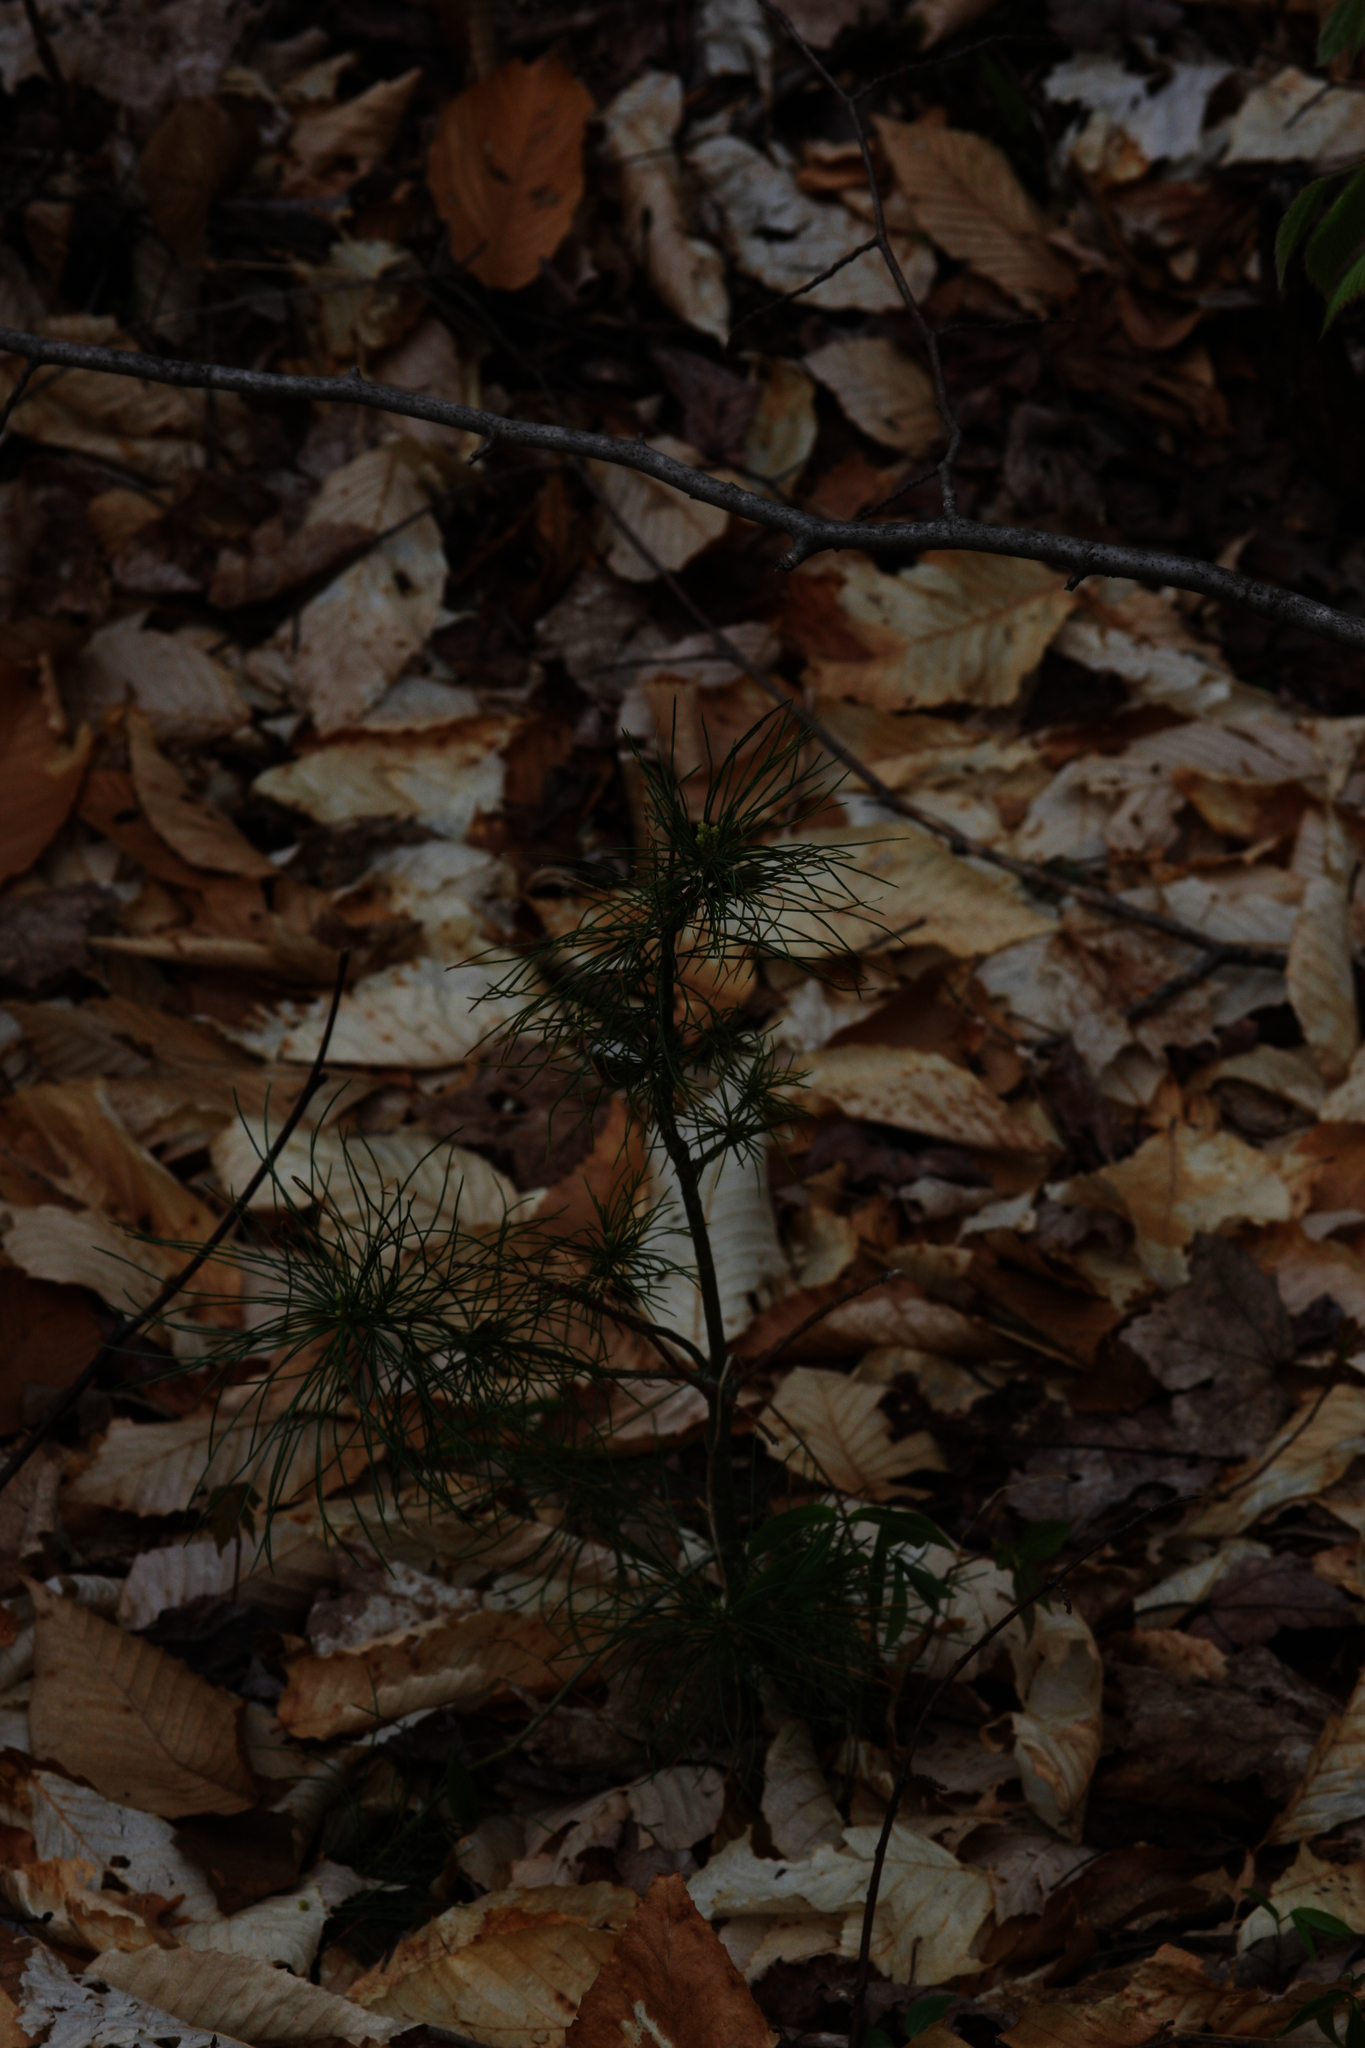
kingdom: Plantae
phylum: Tracheophyta
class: Pinopsida
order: Pinales
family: Pinaceae
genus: Pinus
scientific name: Pinus strobus
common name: Weymouth pine
